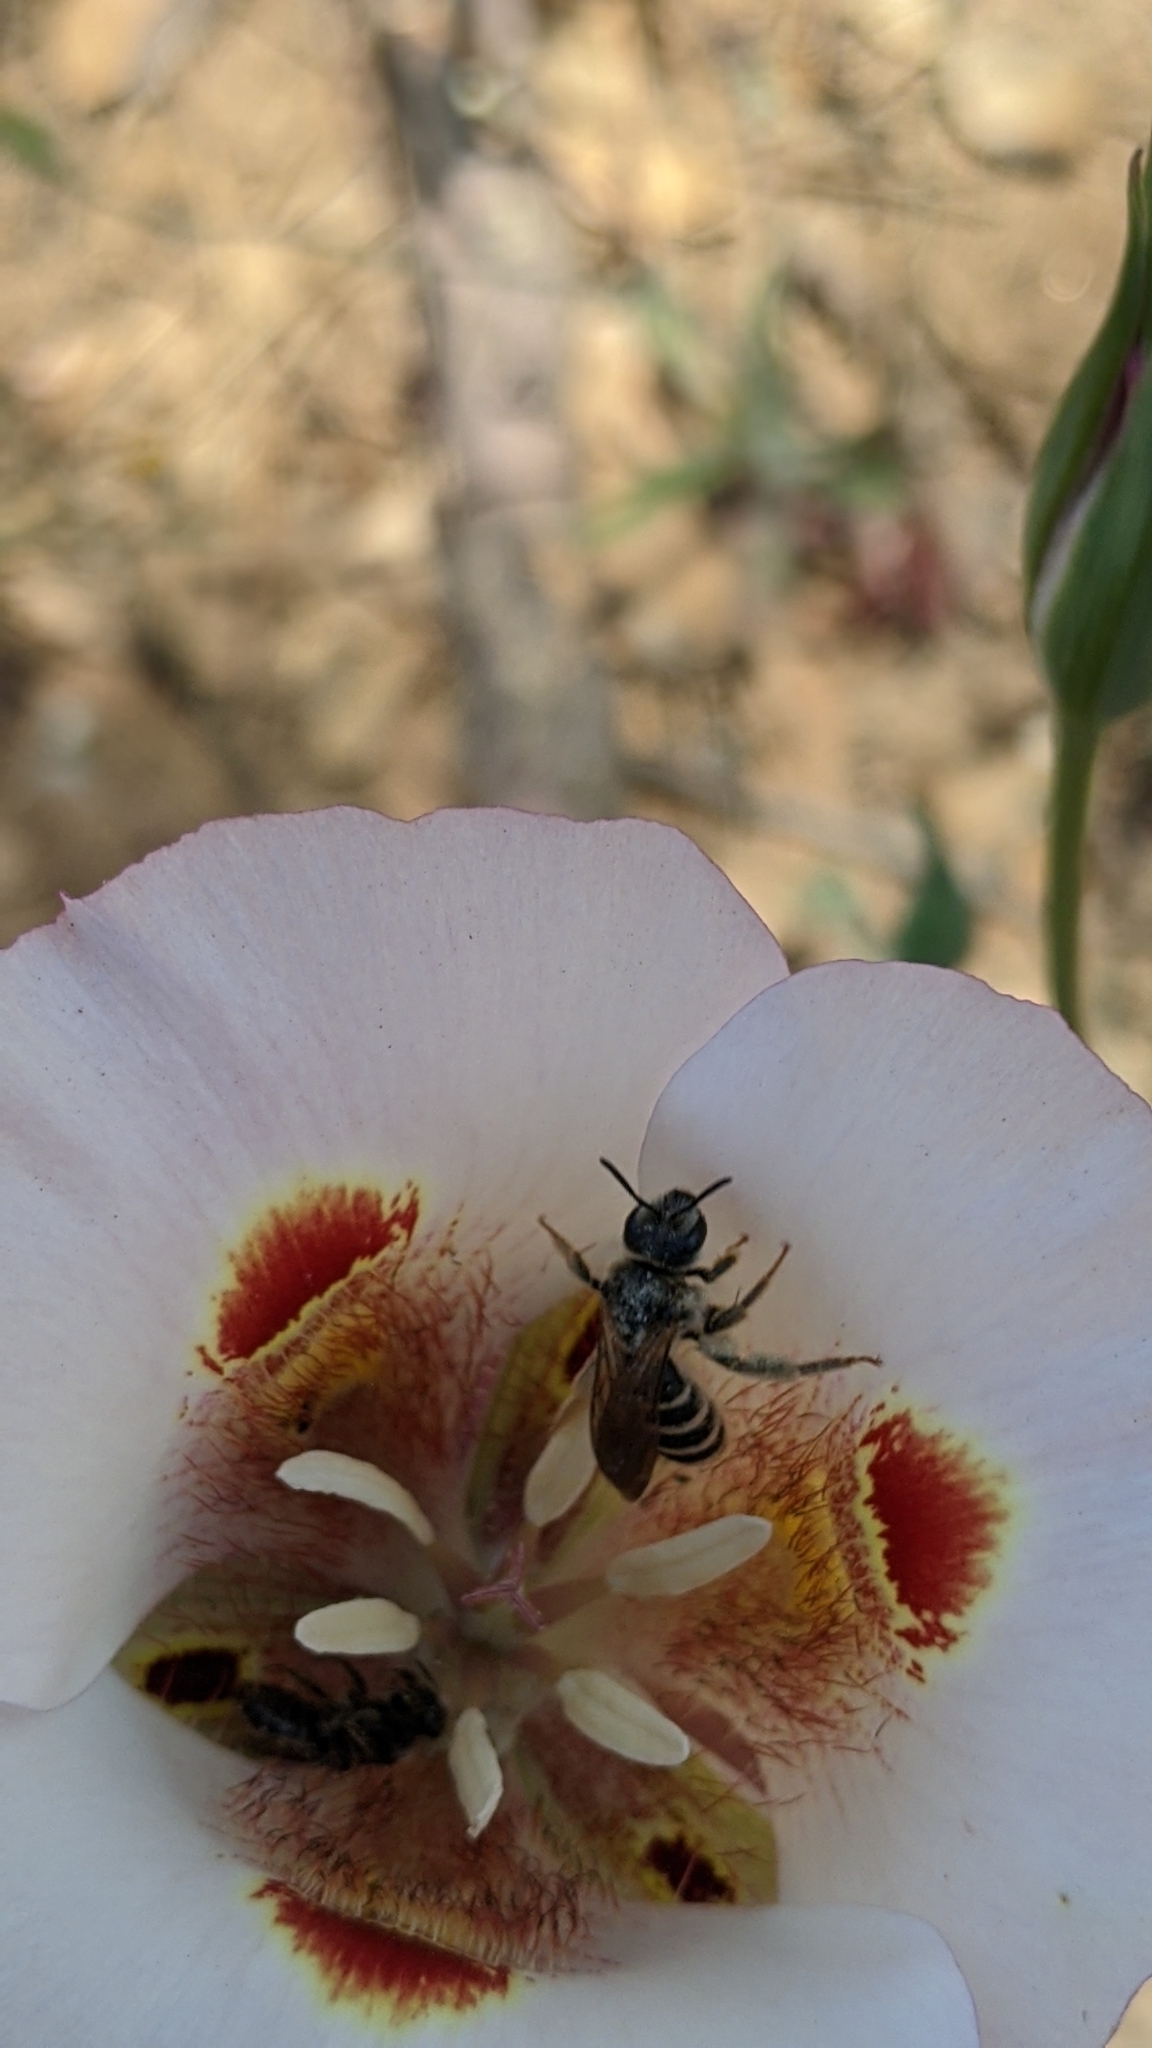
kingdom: Animalia
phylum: Arthropoda
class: Insecta
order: Hymenoptera
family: Halictidae
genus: Halictus
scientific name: Halictus farinosus
